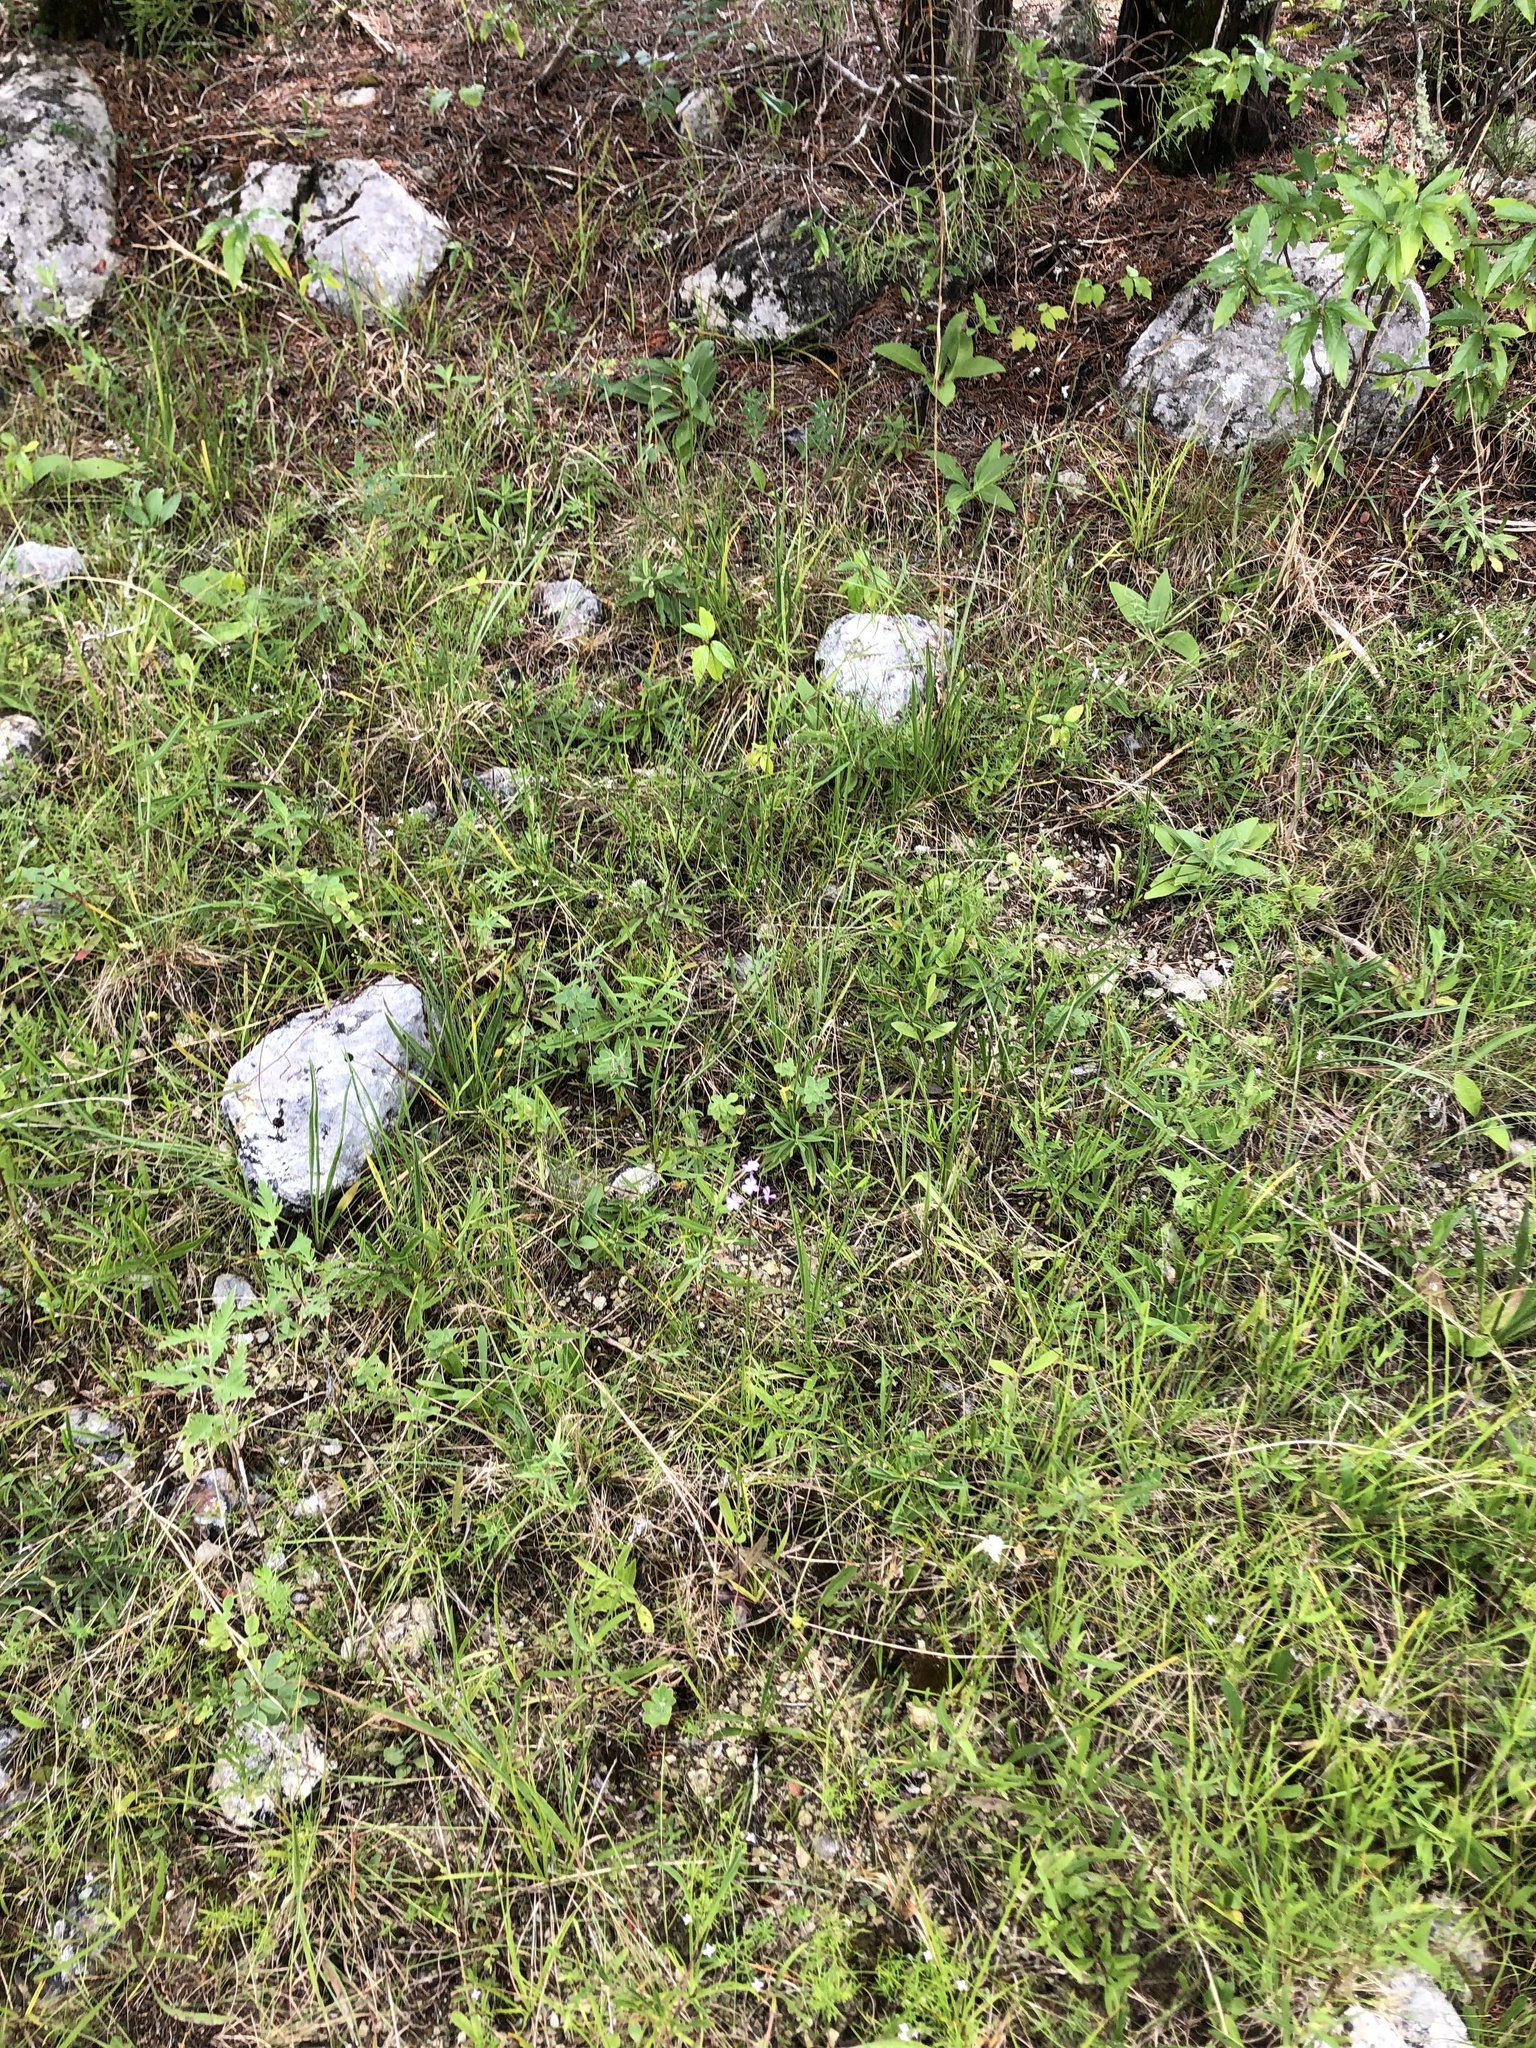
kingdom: Plantae
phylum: Tracheophyta
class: Magnoliopsida
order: Lamiales
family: Orobanchaceae
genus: Buchnera
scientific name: Buchnera floridana
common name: Florida bluehearts
